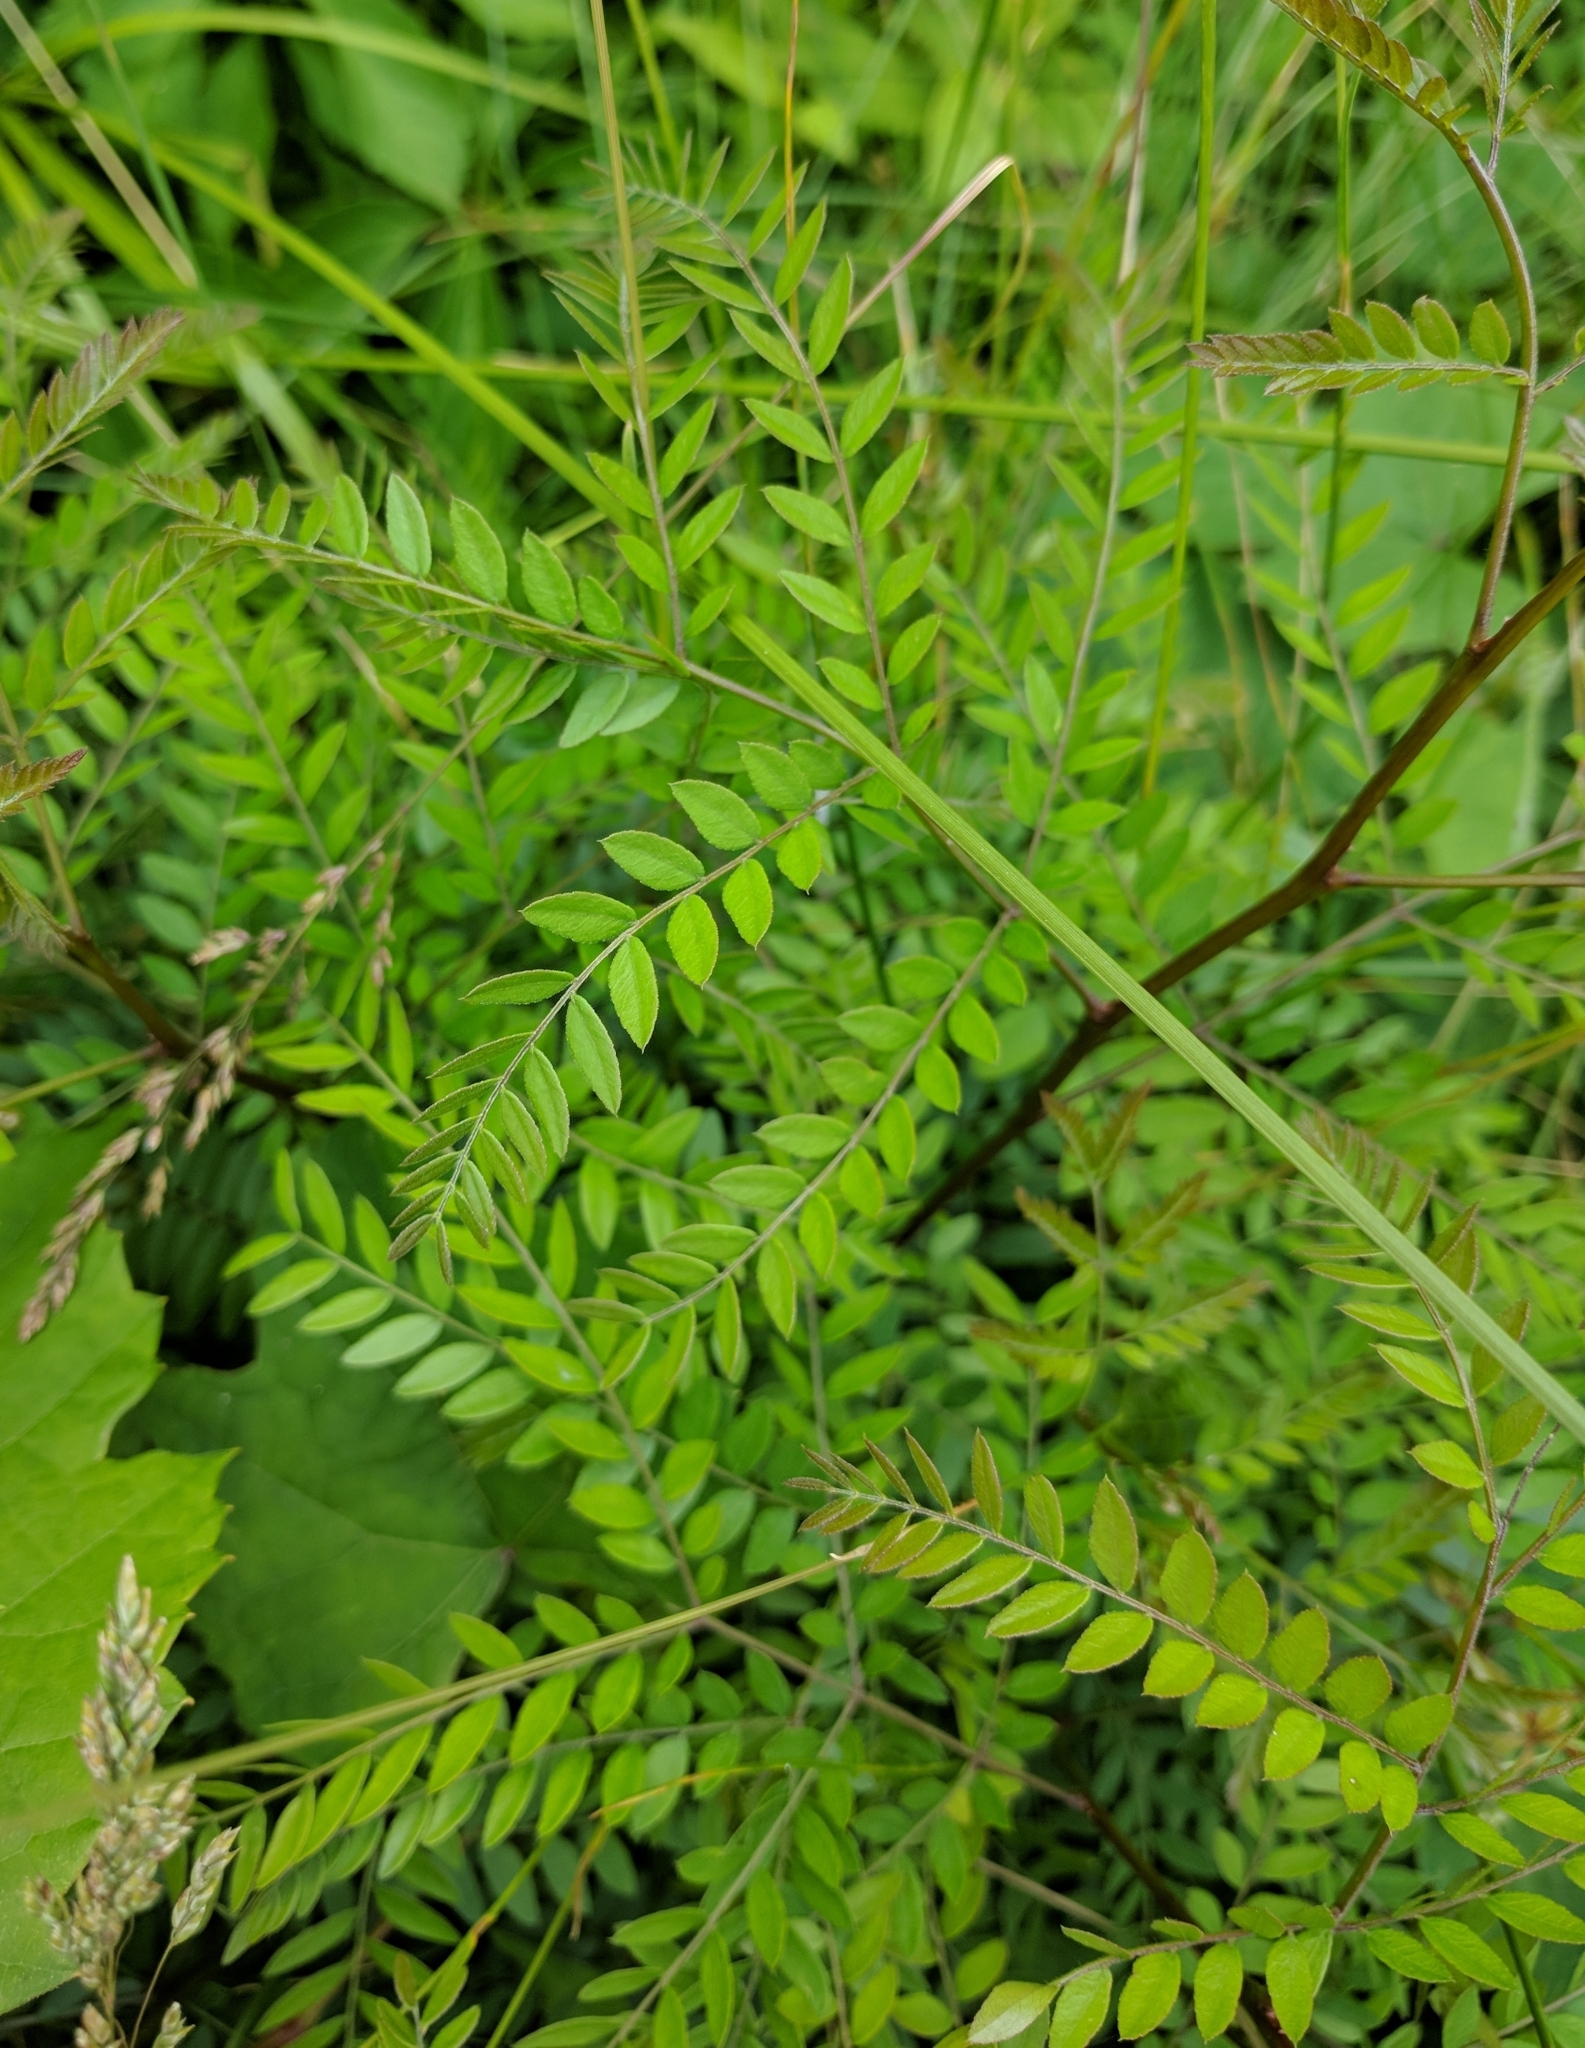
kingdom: Plantae
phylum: Tracheophyta
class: Magnoliopsida
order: Fabales
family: Fabaceae
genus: Gleditsia
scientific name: Gleditsia triacanthos
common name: Common honeylocust
